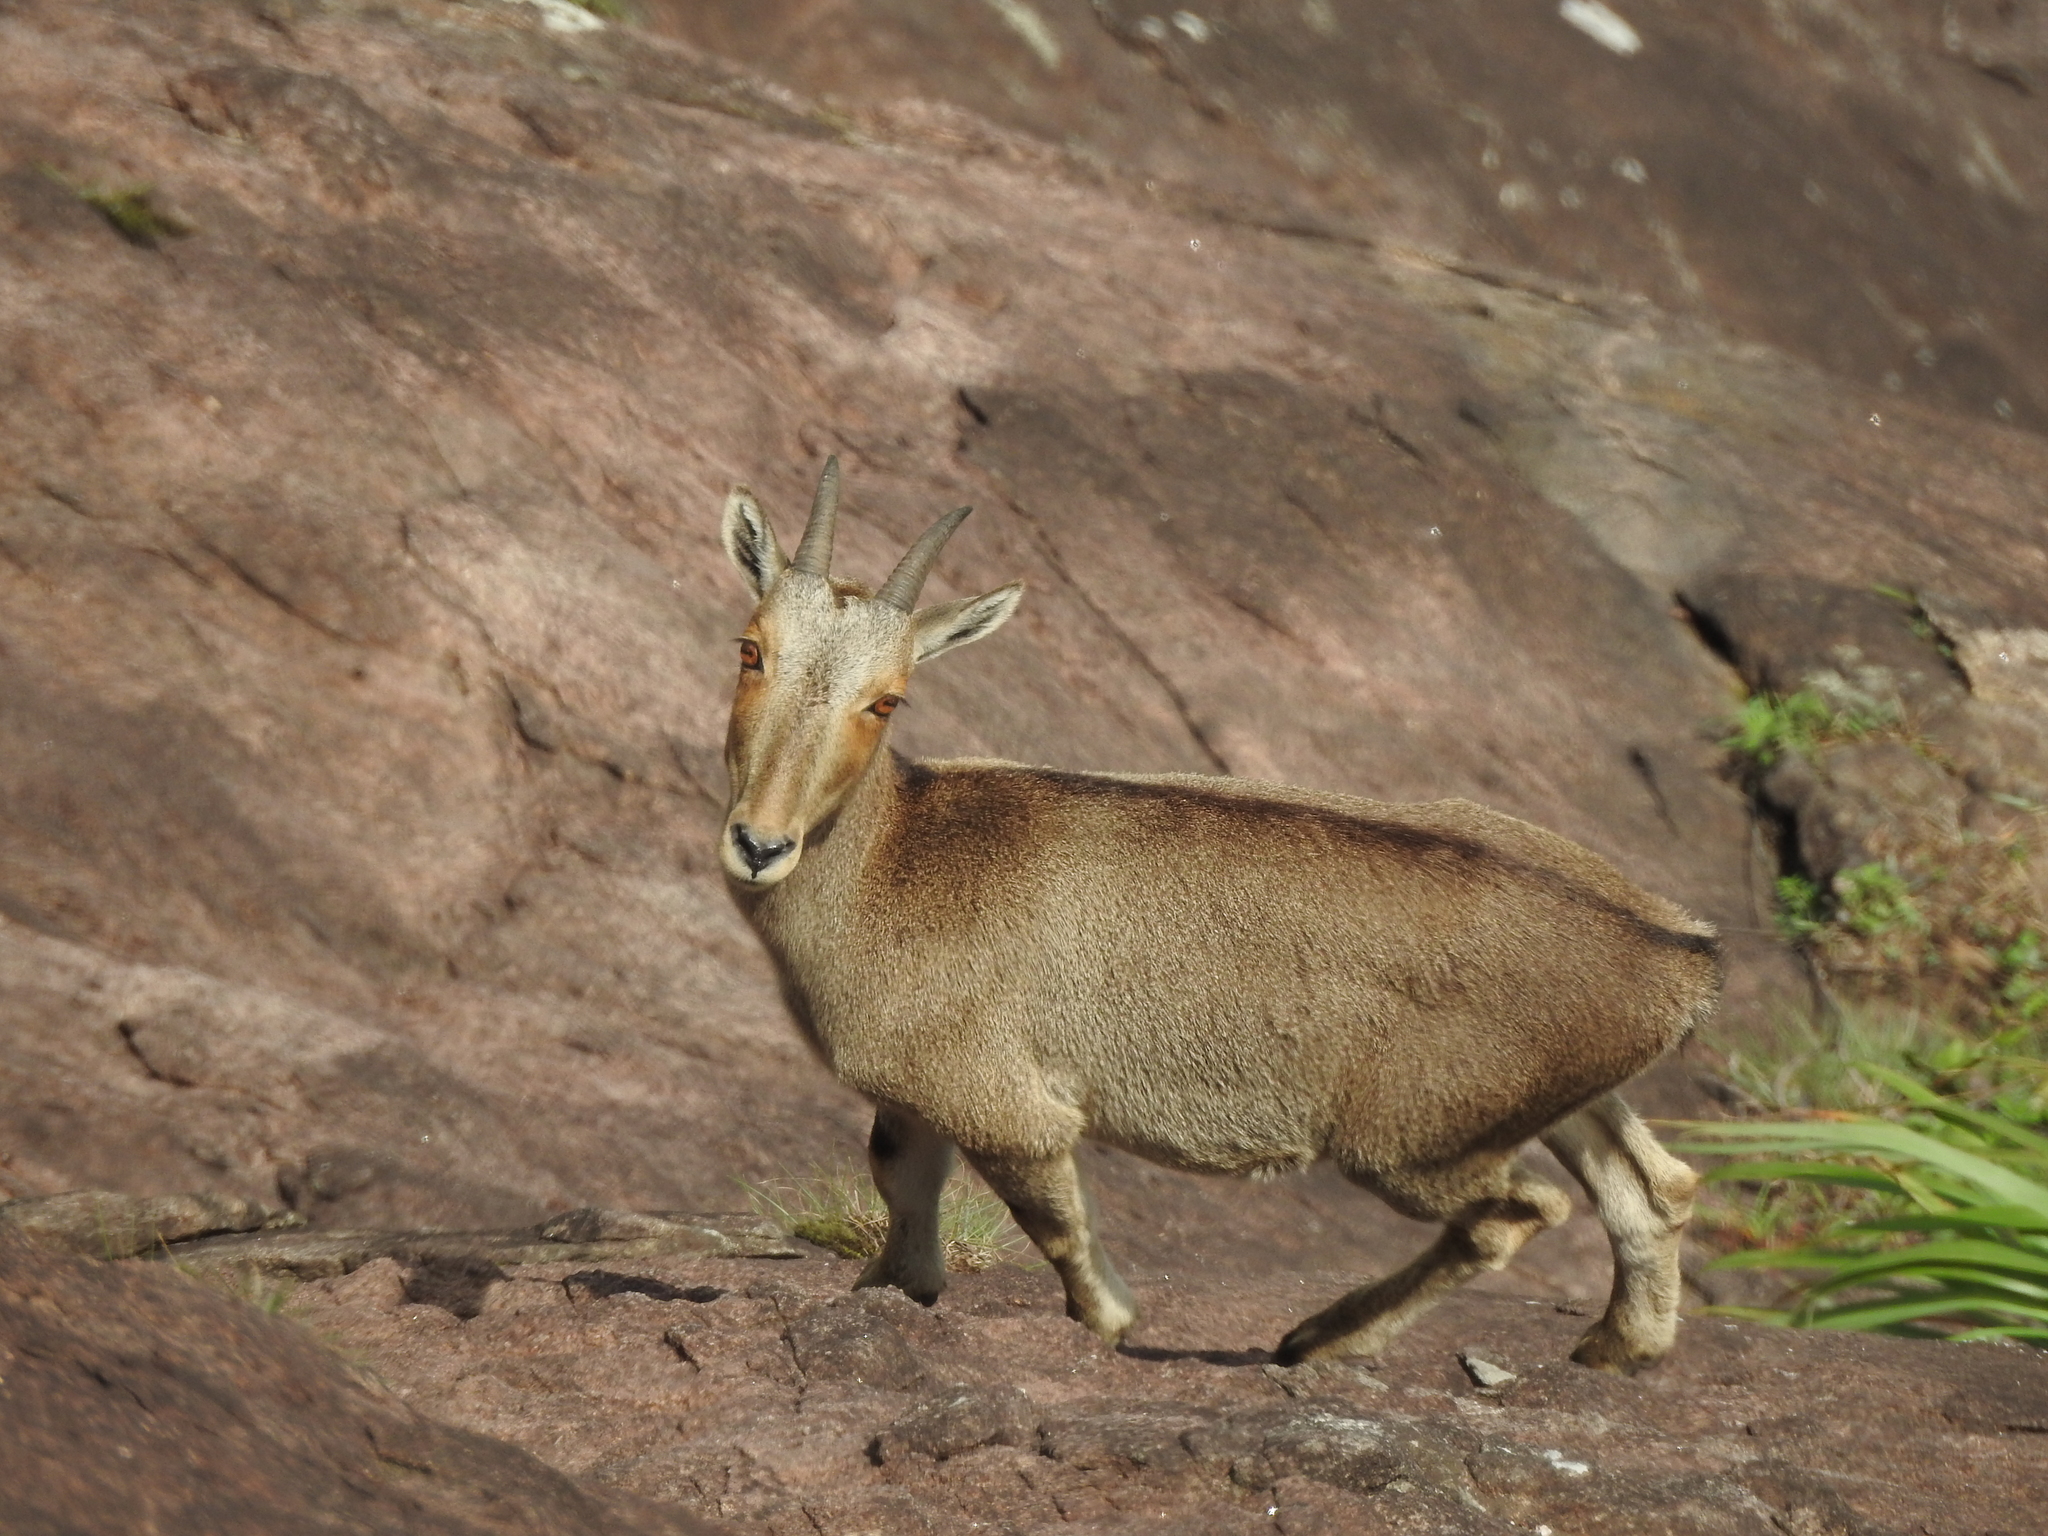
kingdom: Animalia
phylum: Chordata
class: Mammalia
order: Artiodactyla
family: Bovidae
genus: Hemitragus
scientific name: Hemitragus hylocrius
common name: Nilgiri tahr
